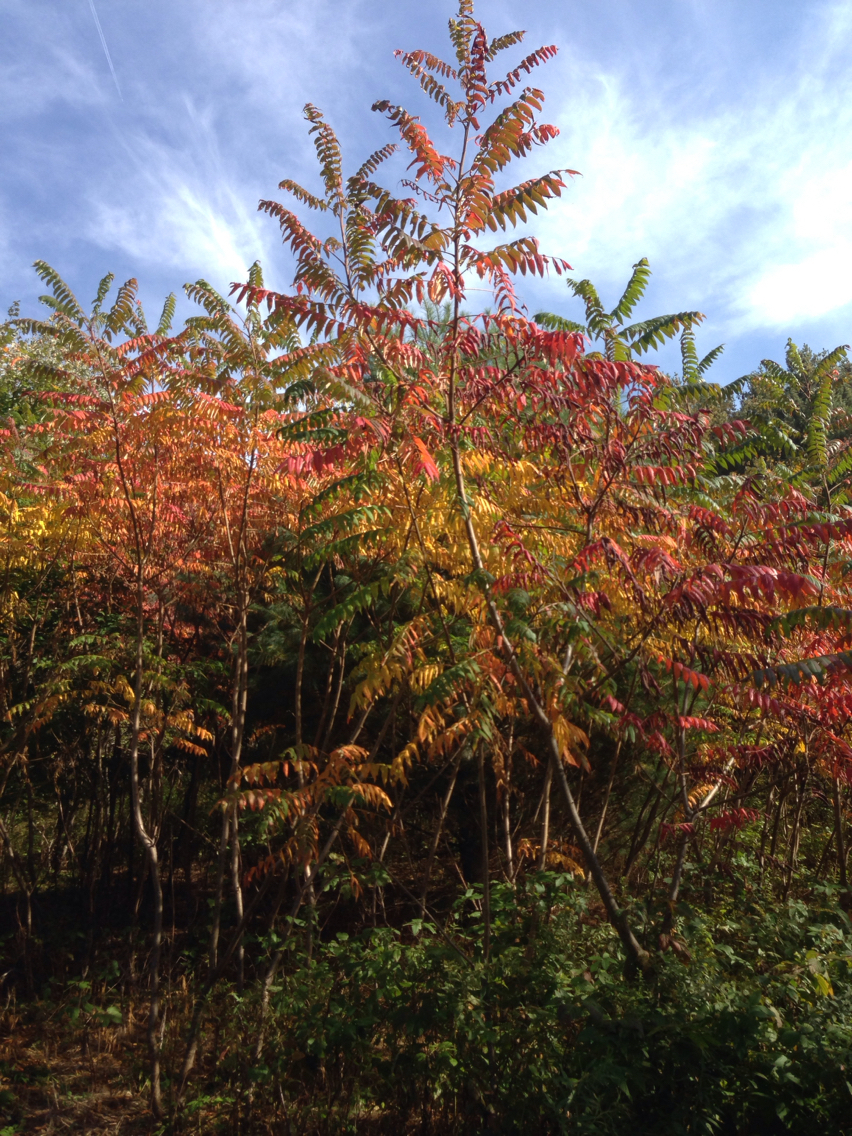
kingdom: Plantae
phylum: Tracheophyta
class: Magnoliopsida
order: Sapindales
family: Anacardiaceae
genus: Rhus
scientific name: Rhus typhina
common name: Staghorn sumac
